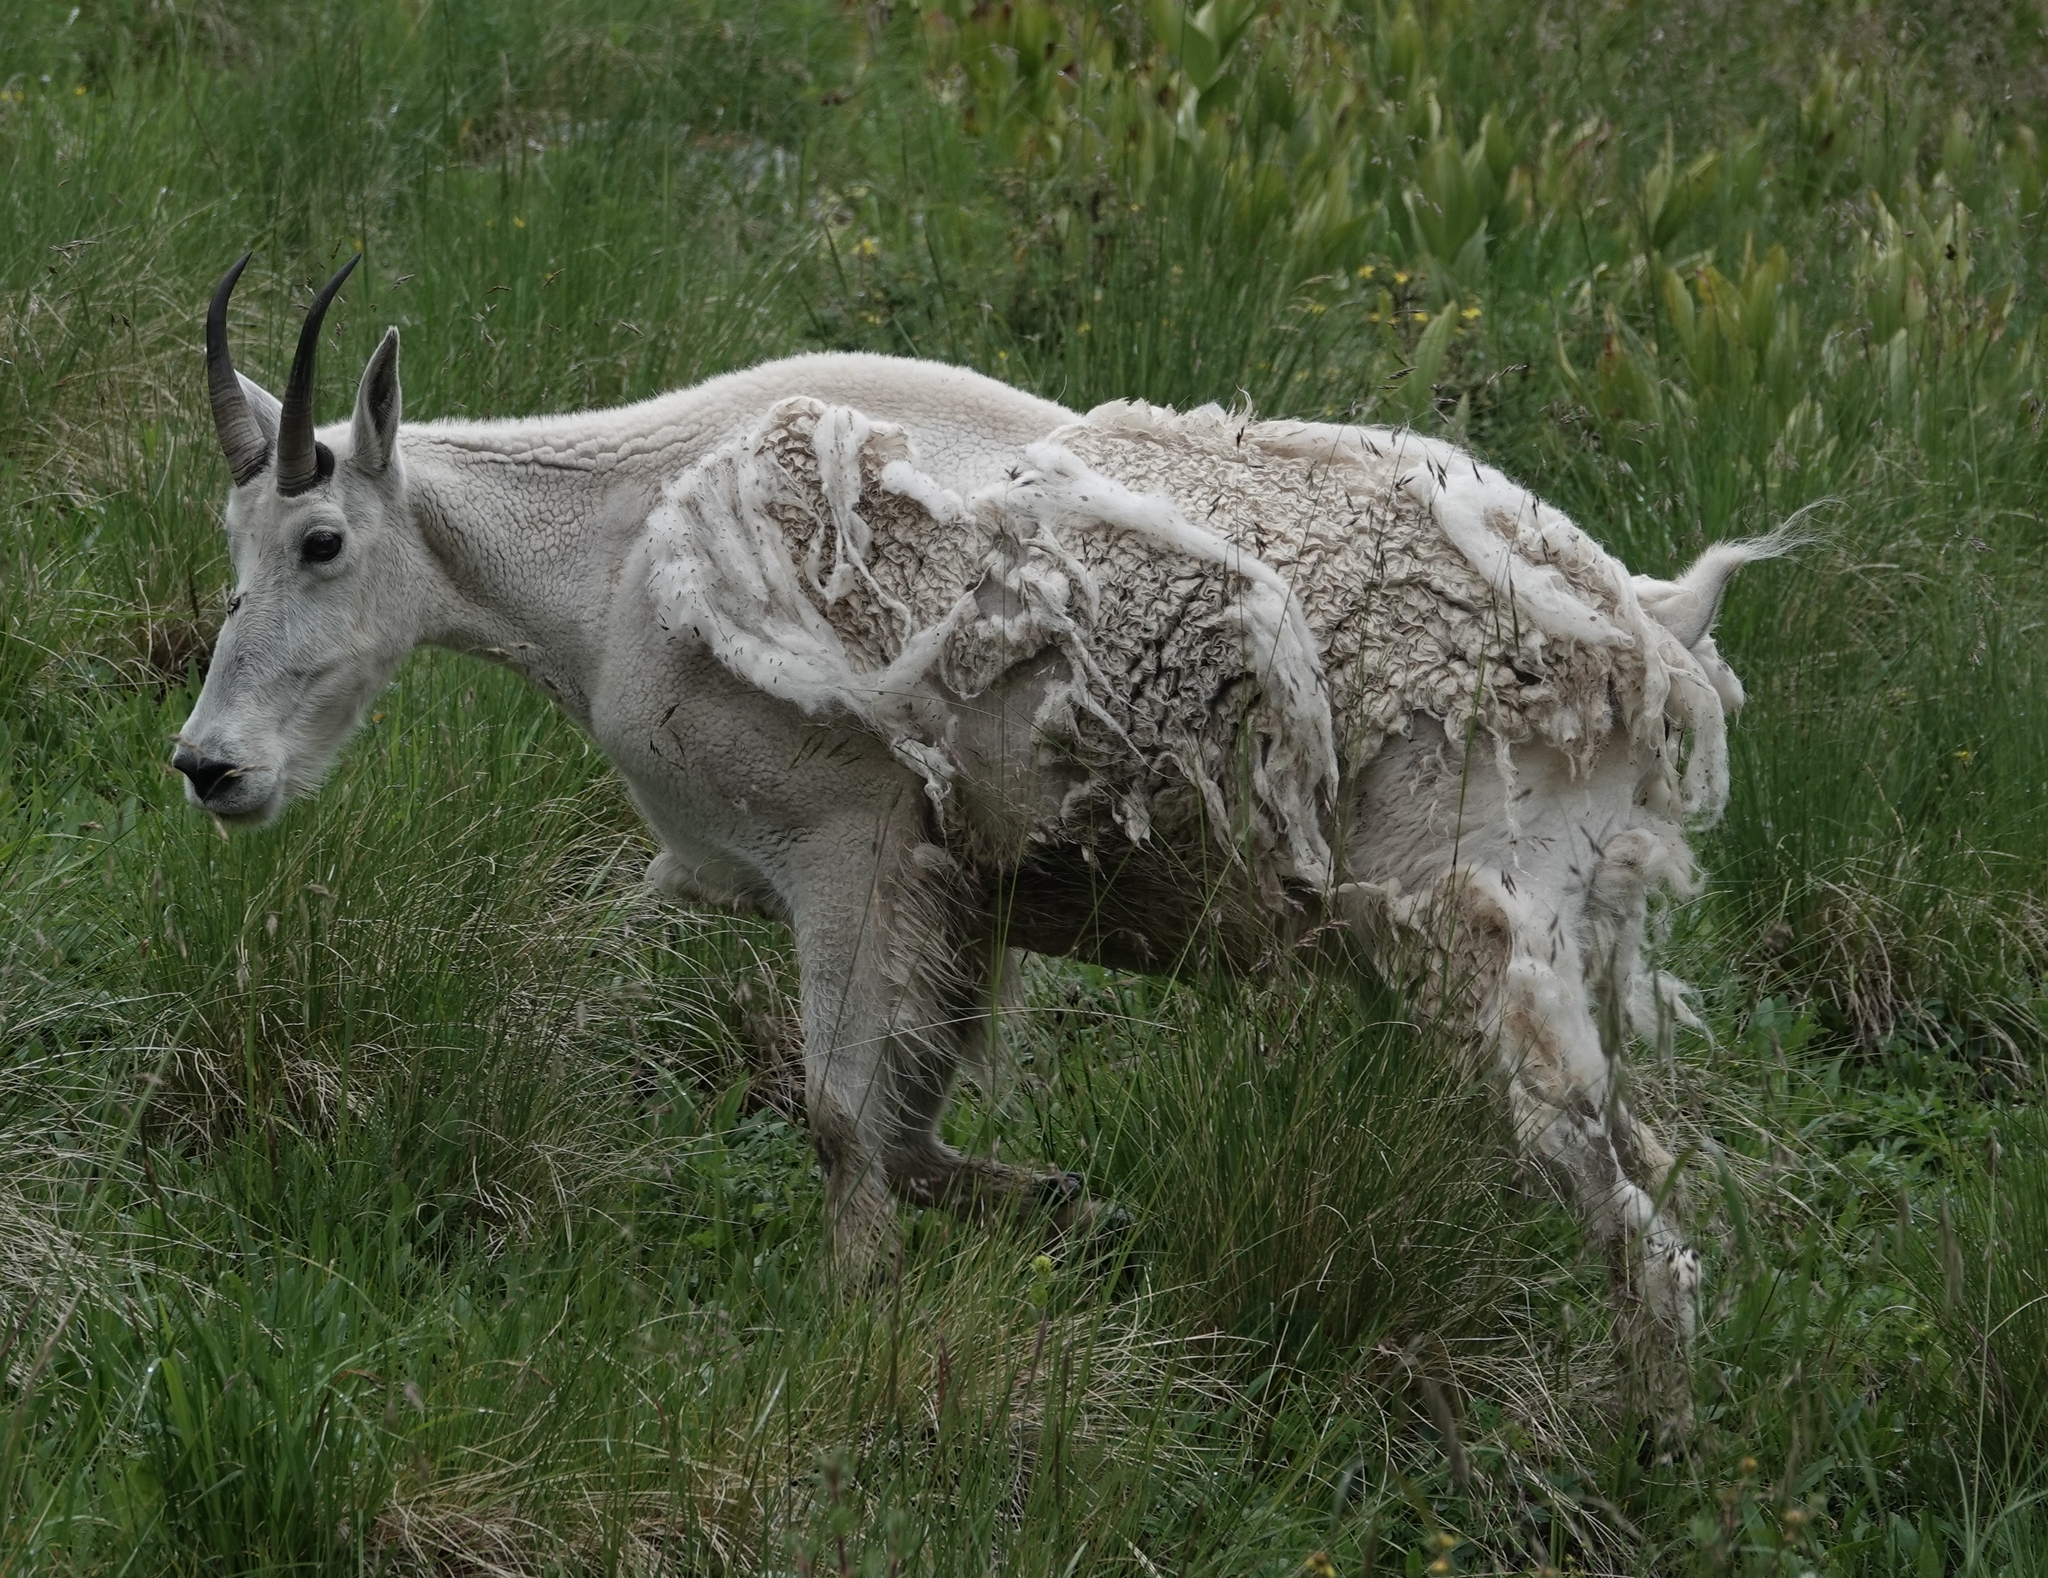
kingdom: Animalia
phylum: Chordata
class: Mammalia
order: Artiodactyla
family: Bovidae
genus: Oreamnos
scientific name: Oreamnos americanus
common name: Mountain goat
